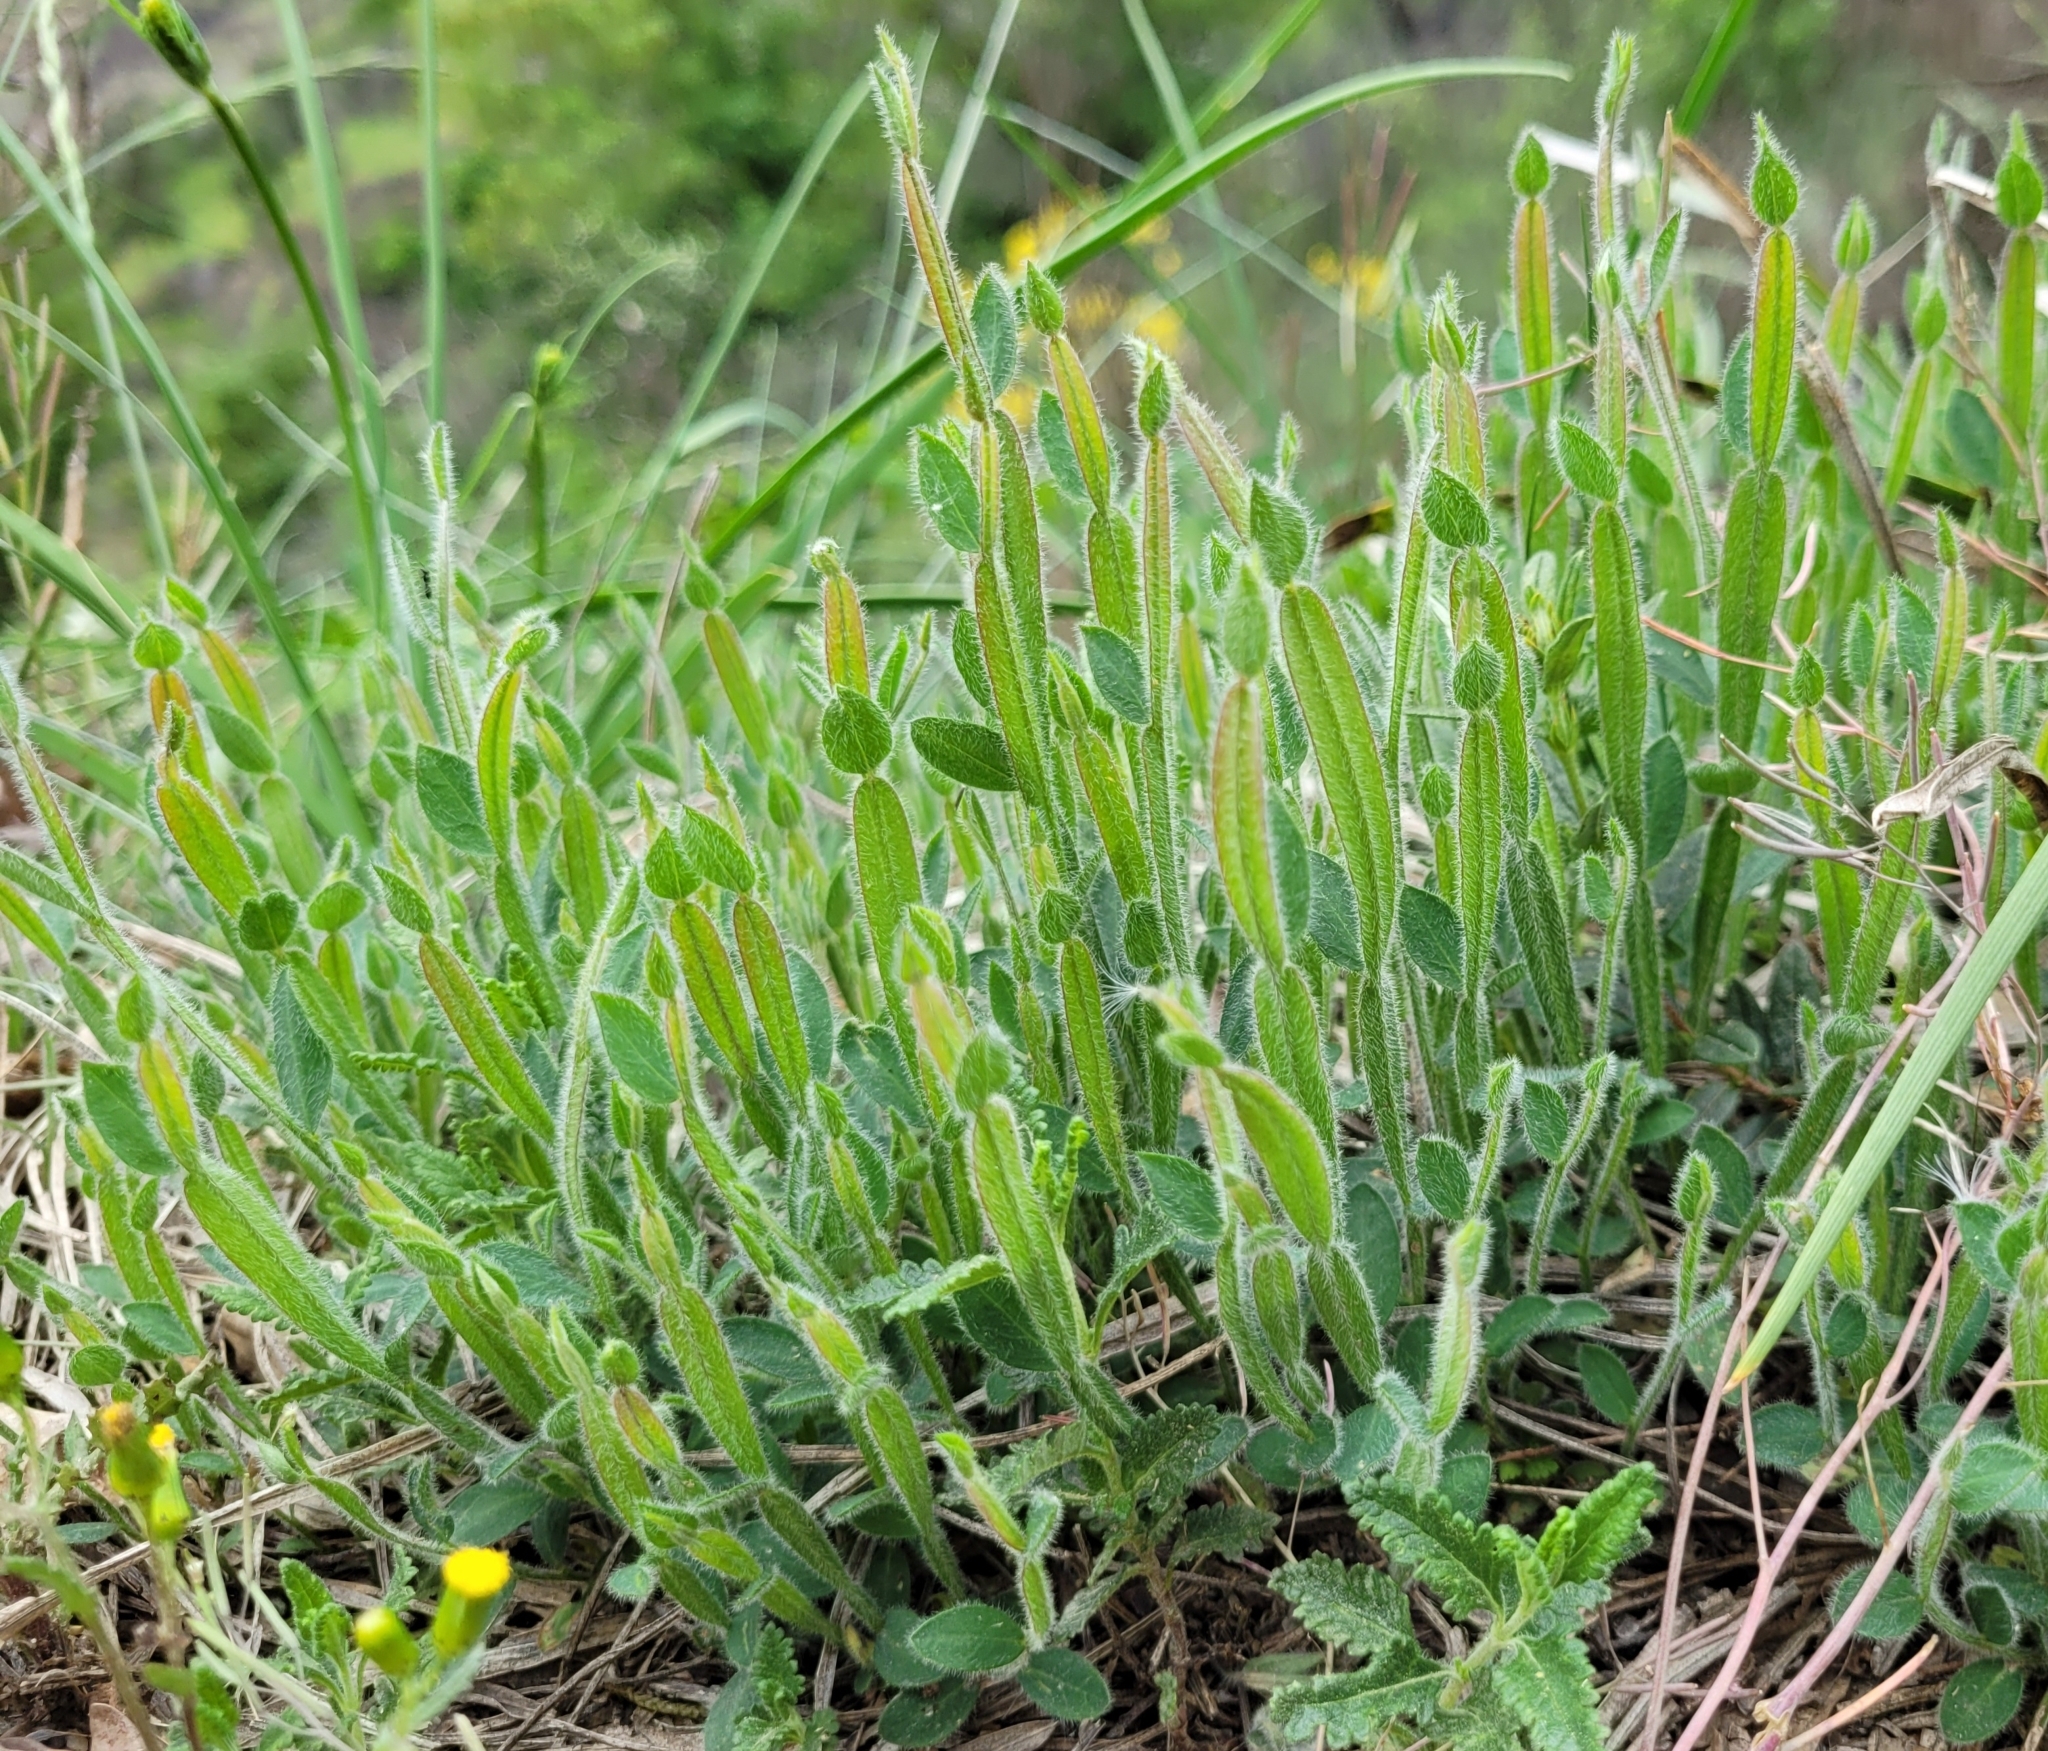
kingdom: Plantae
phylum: Tracheophyta
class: Magnoliopsida
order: Fabales
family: Fabaceae
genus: Genista
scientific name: Genista sagittalis
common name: Winged greenweed
